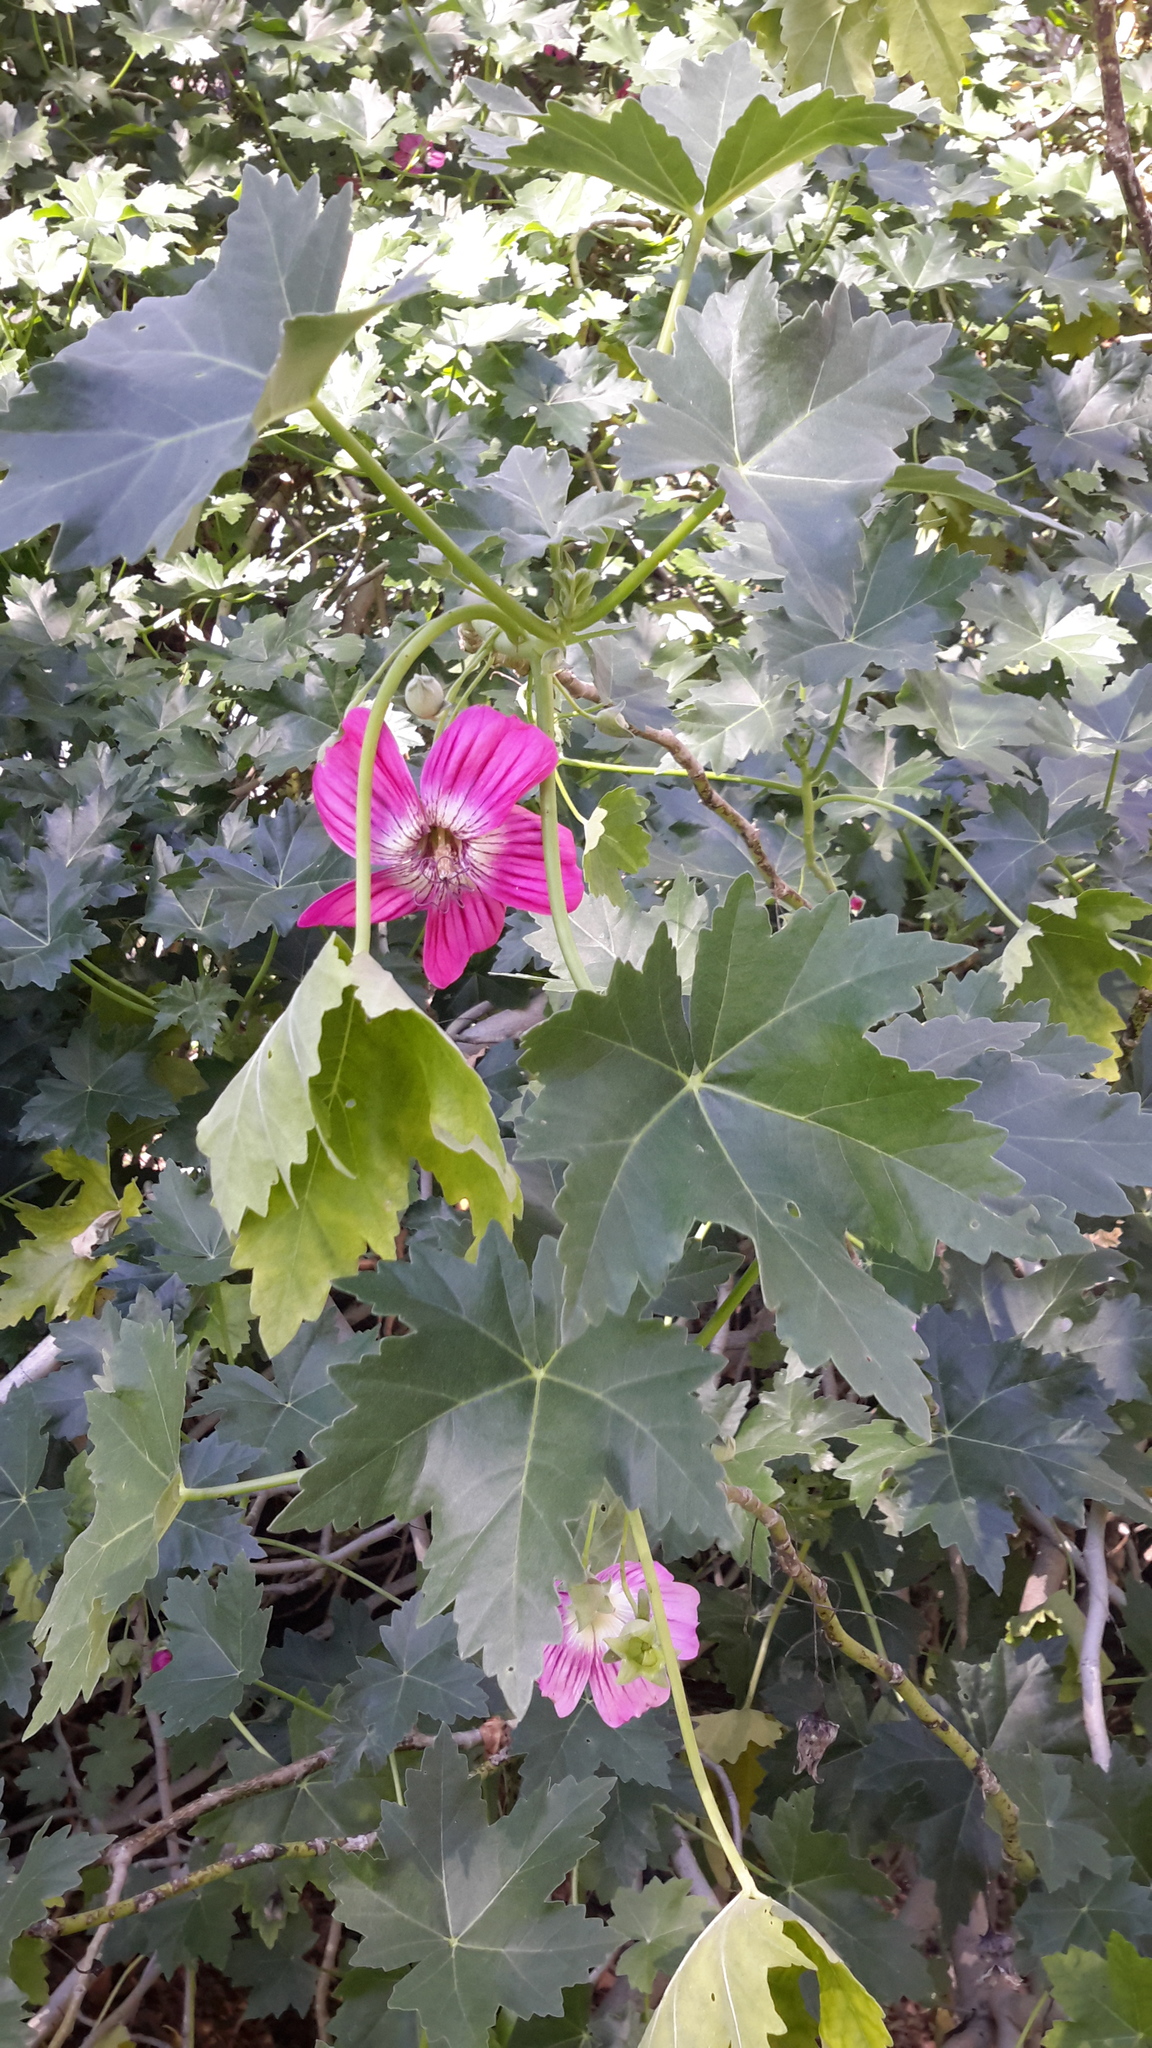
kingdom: Plantae
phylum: Tracheophyta
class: Magnoliopsida
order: Malvales
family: Malvaceae
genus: Malva
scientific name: Malva assurgentiflora
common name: Island mallow
